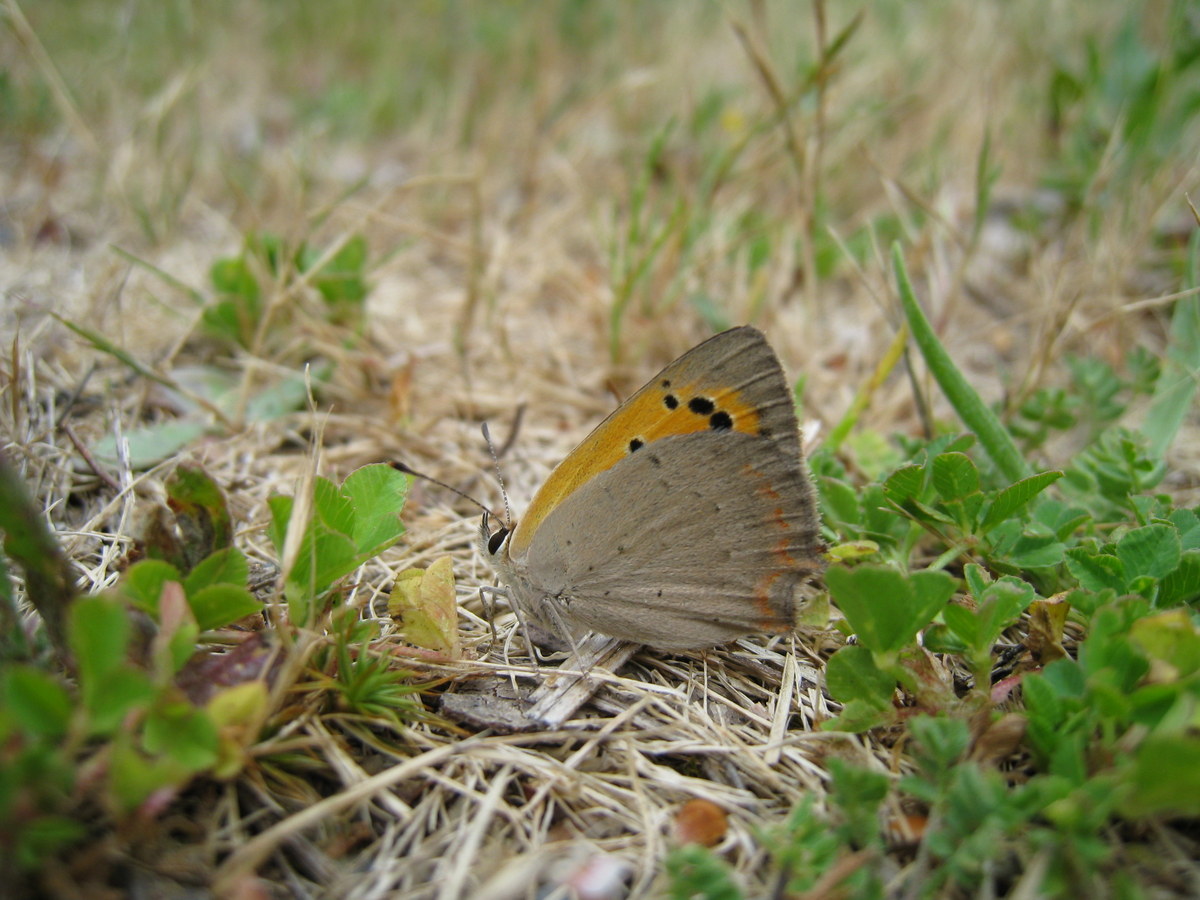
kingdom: Animalia
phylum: Arthropoda
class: Insecta
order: Lepidoptera
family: Lycaenidae
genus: Lycaena
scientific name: Lycaena phlaeas
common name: Small copper
